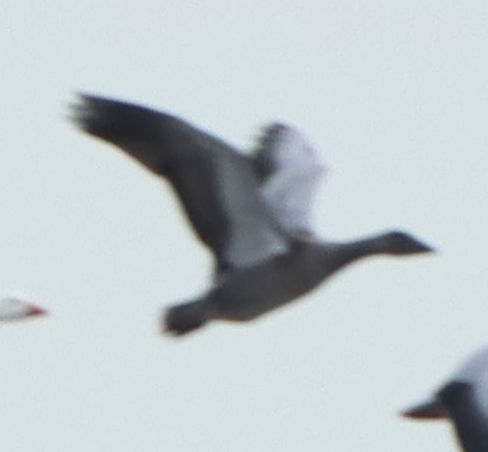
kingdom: Animalia
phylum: Chordata
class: Aves
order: Anseriformes
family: Anatidae
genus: Anser
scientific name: Anser caerulescens
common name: Snow goose
